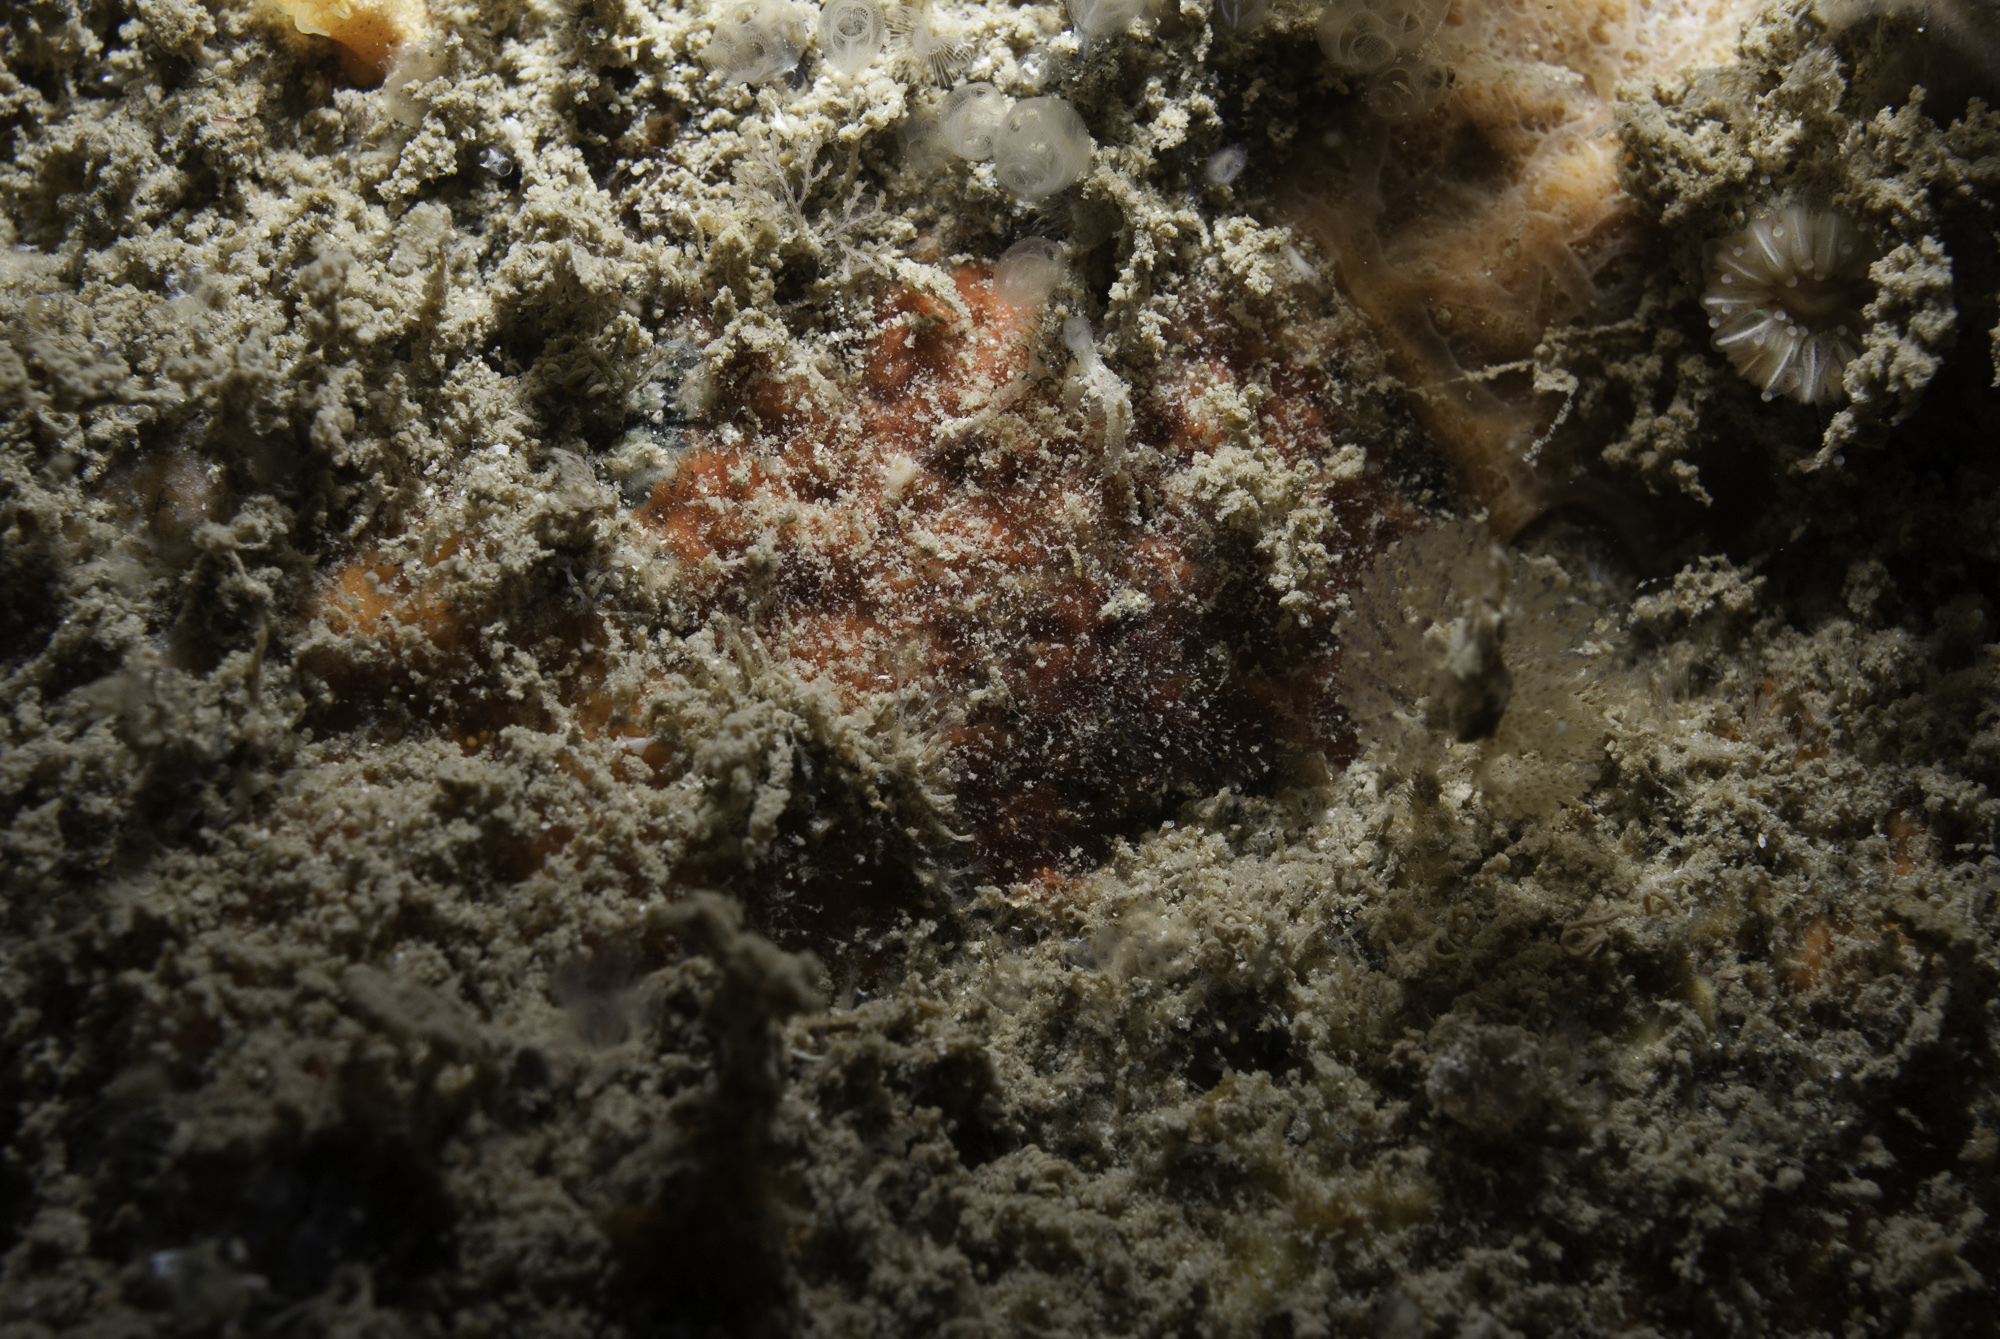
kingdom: Animalia
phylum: Porifera
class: Demospongiae
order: Axinellida
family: Raspailiidae
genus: Hymeraphia
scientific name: Hymeraphia stellifera
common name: Star horny sponge
